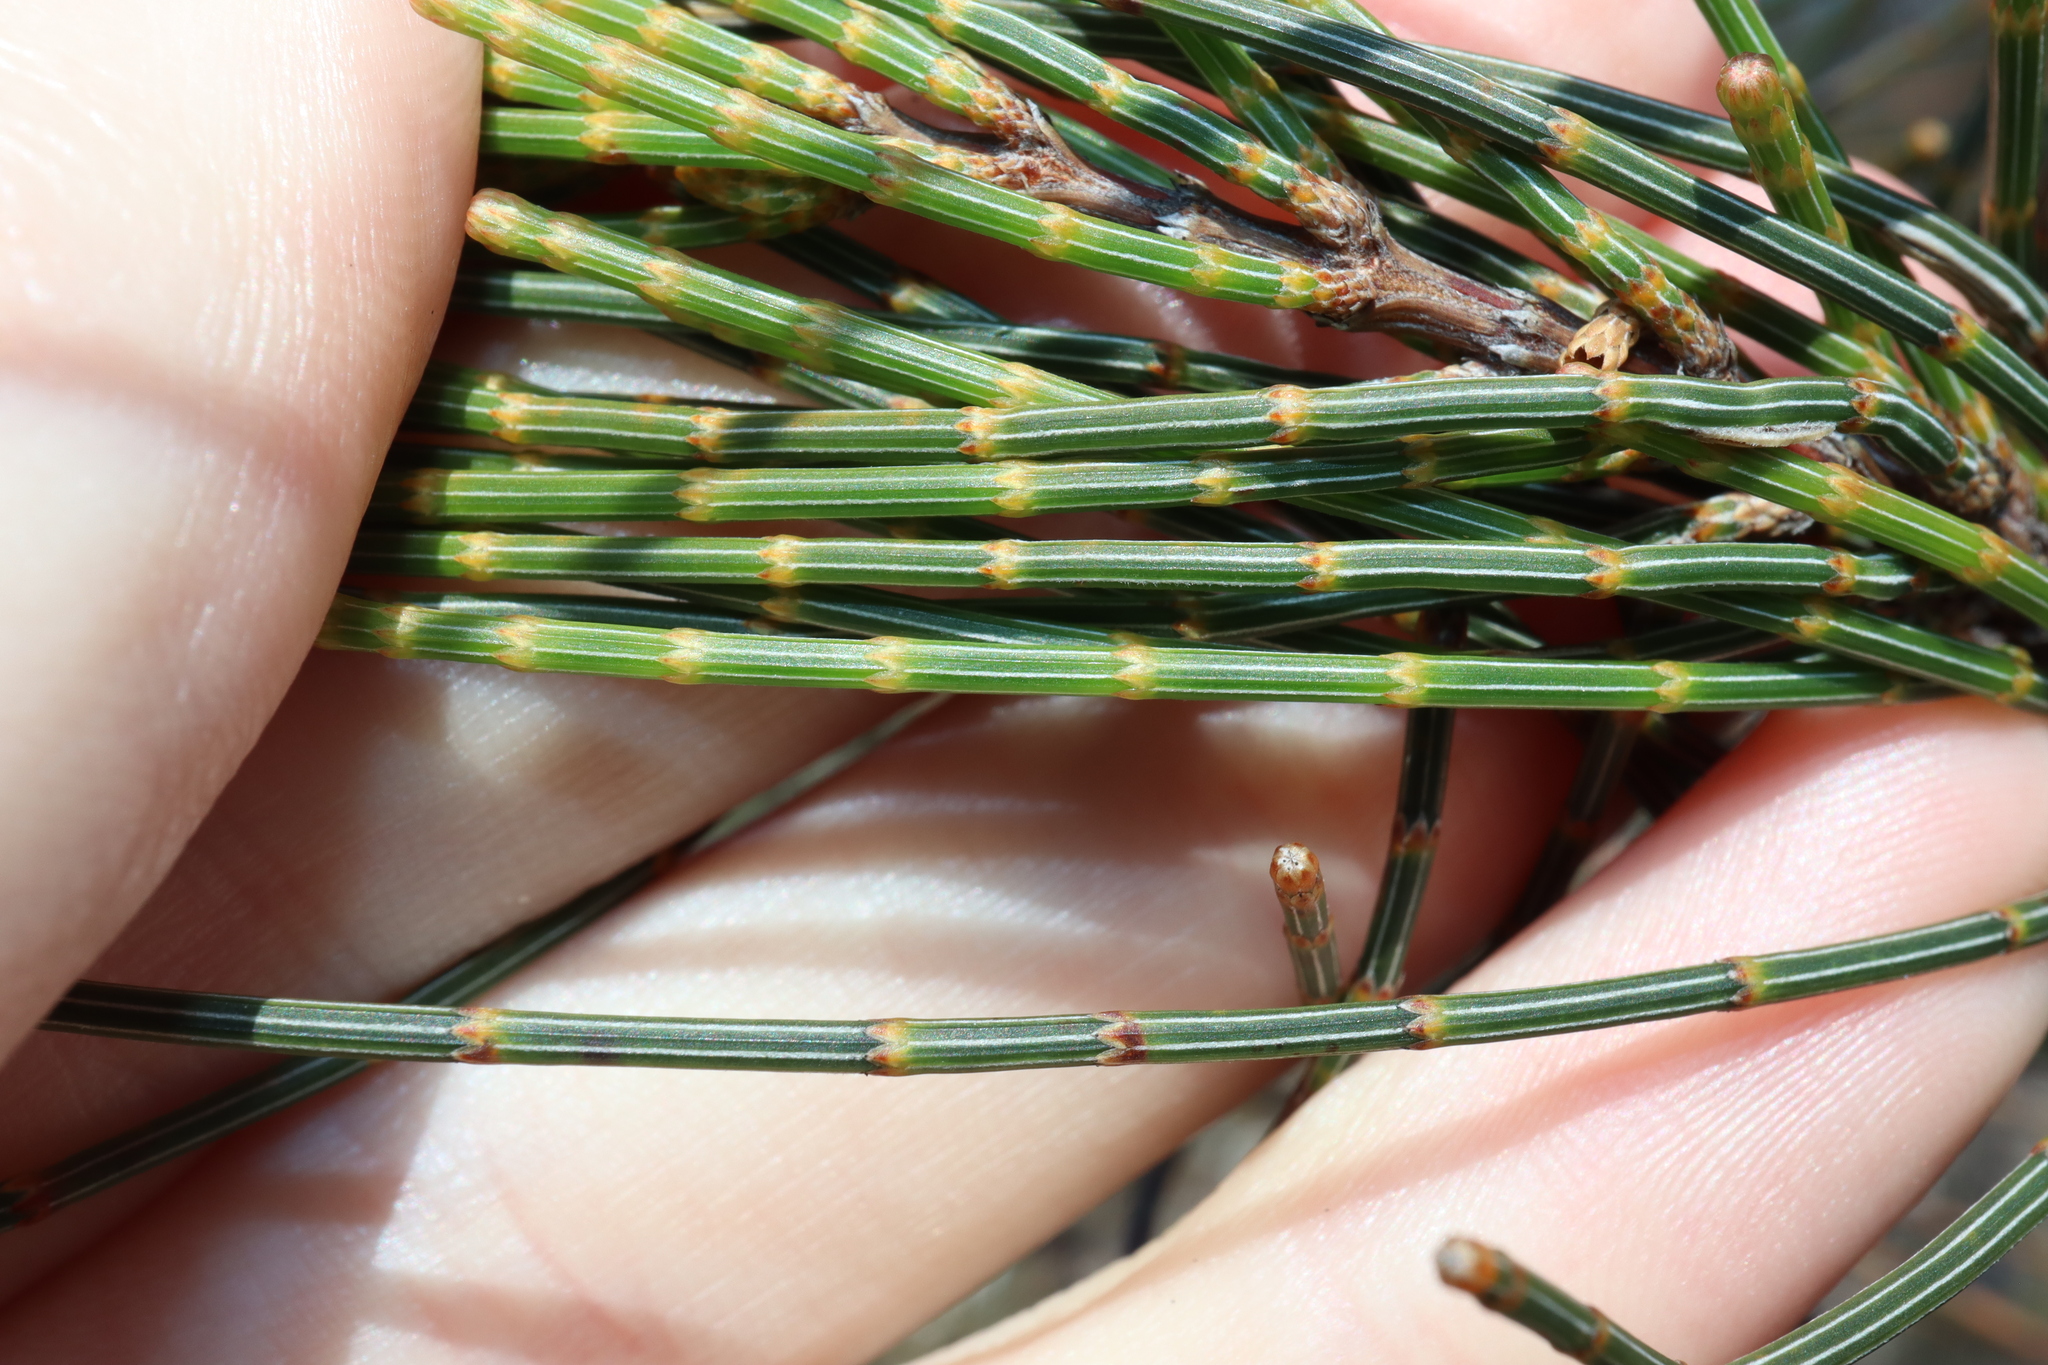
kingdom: Plantae
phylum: Tracheophyta
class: Magnoliopsida
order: Fagales
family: Casuarinaceae
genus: Allocasuarina
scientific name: Allocasuarina distyla
